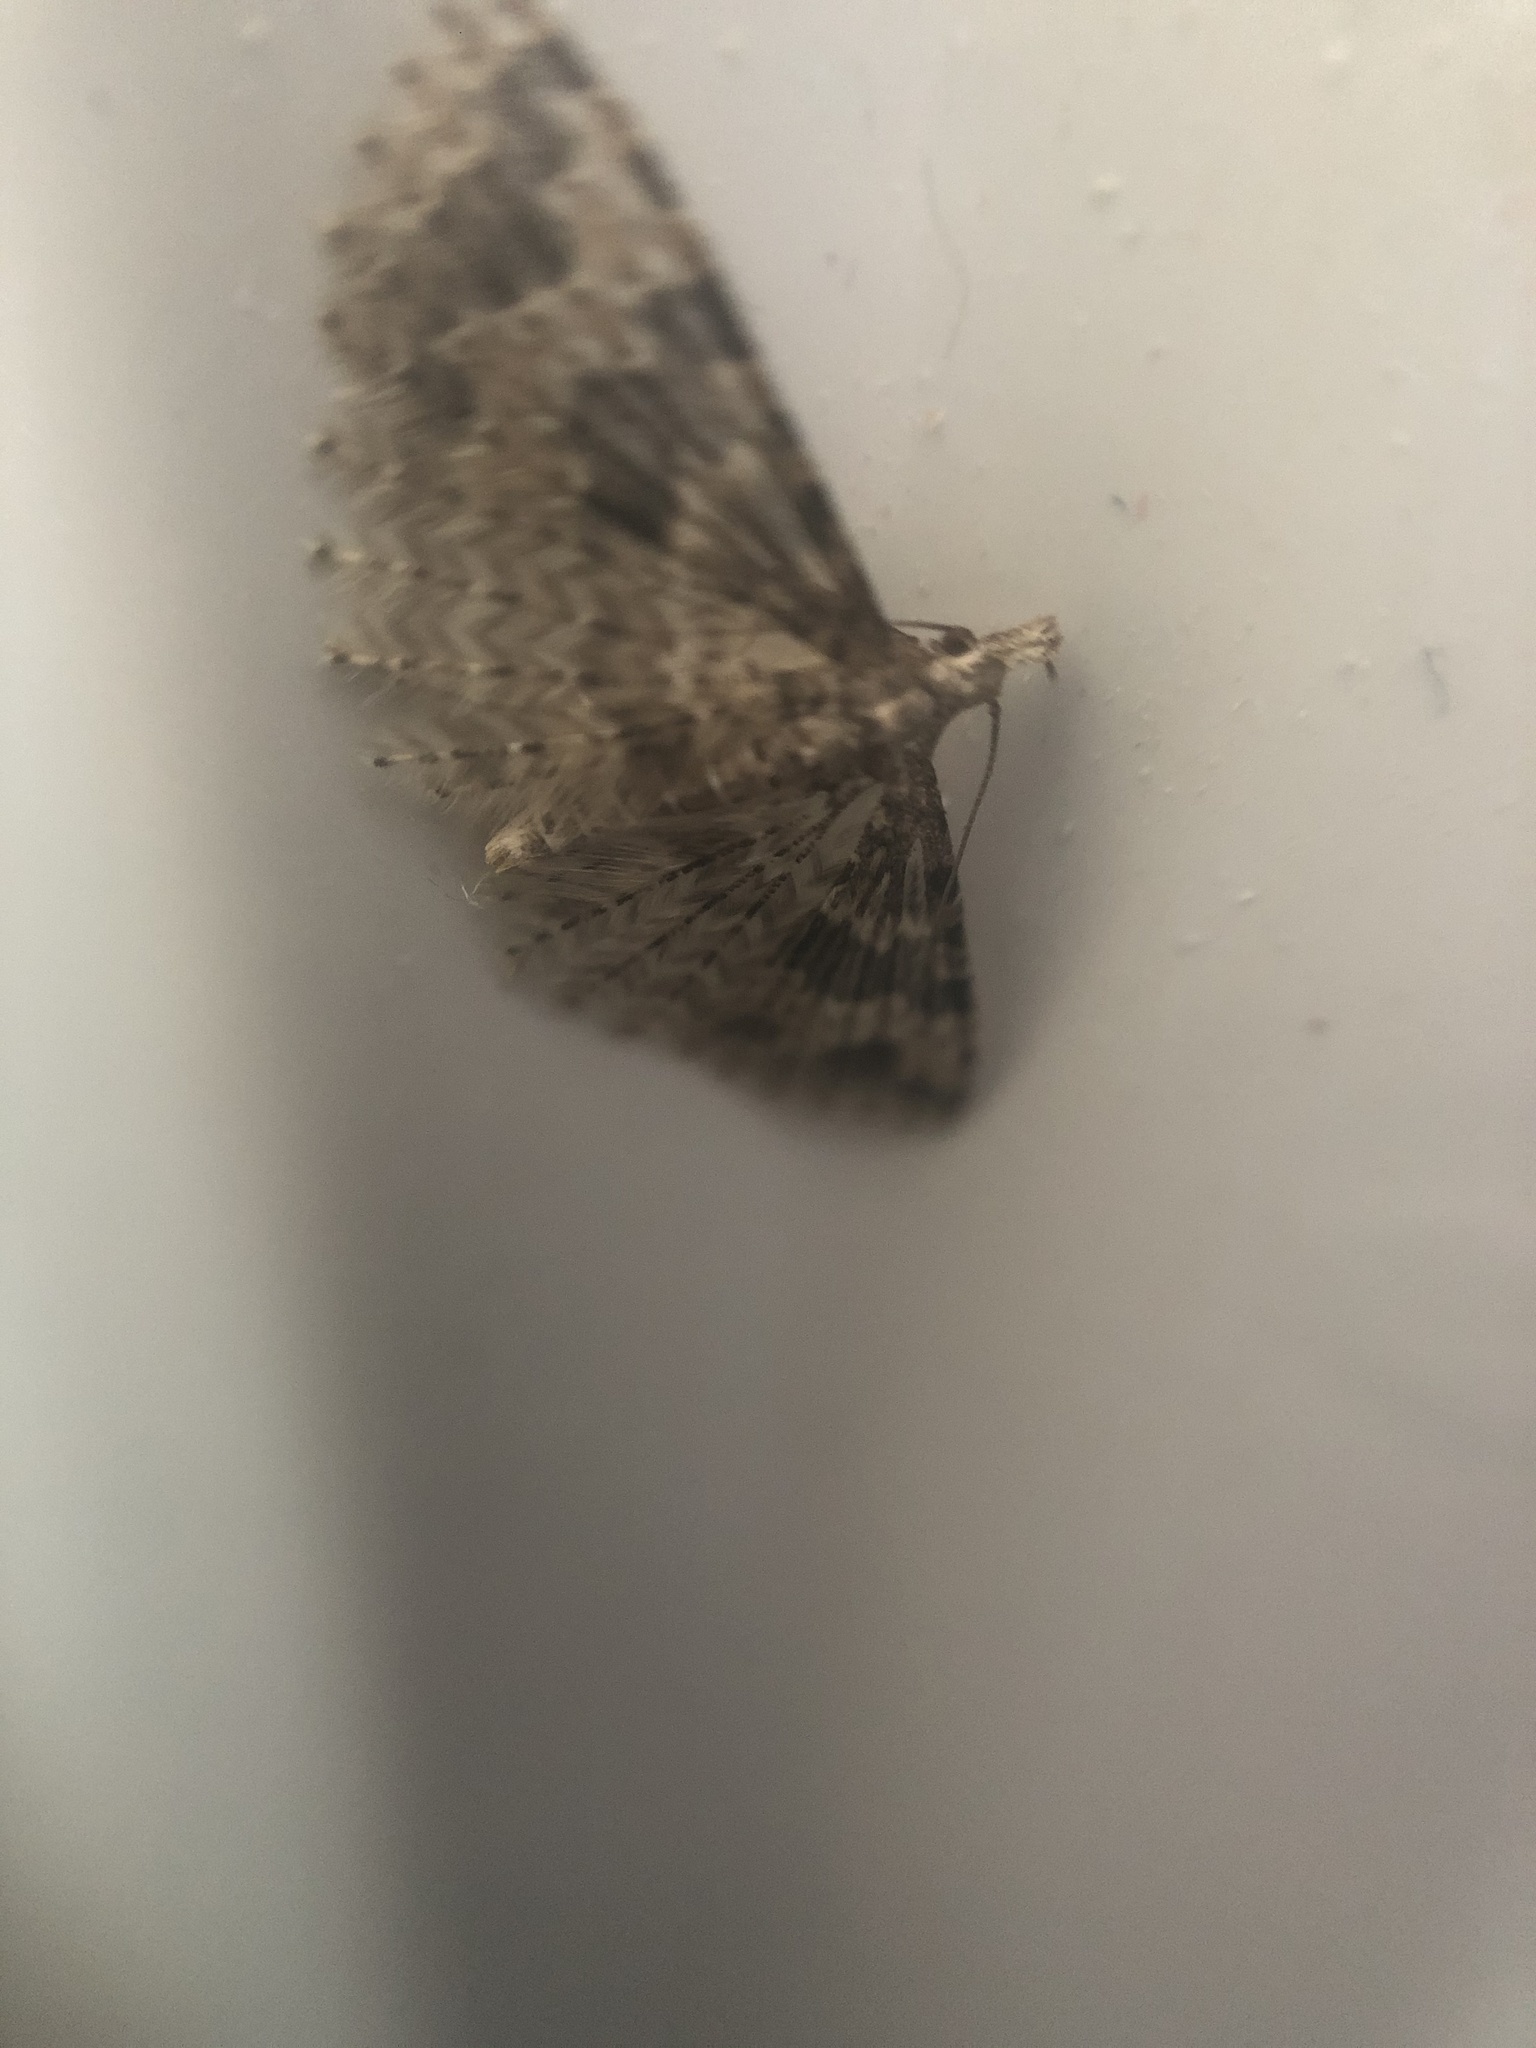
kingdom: Animalia
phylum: Arthropoda
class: Insecta
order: Lepidoptera
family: Alucitidae
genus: Alucita
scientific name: Alucita hexadactyla
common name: Twenty-plume moth
